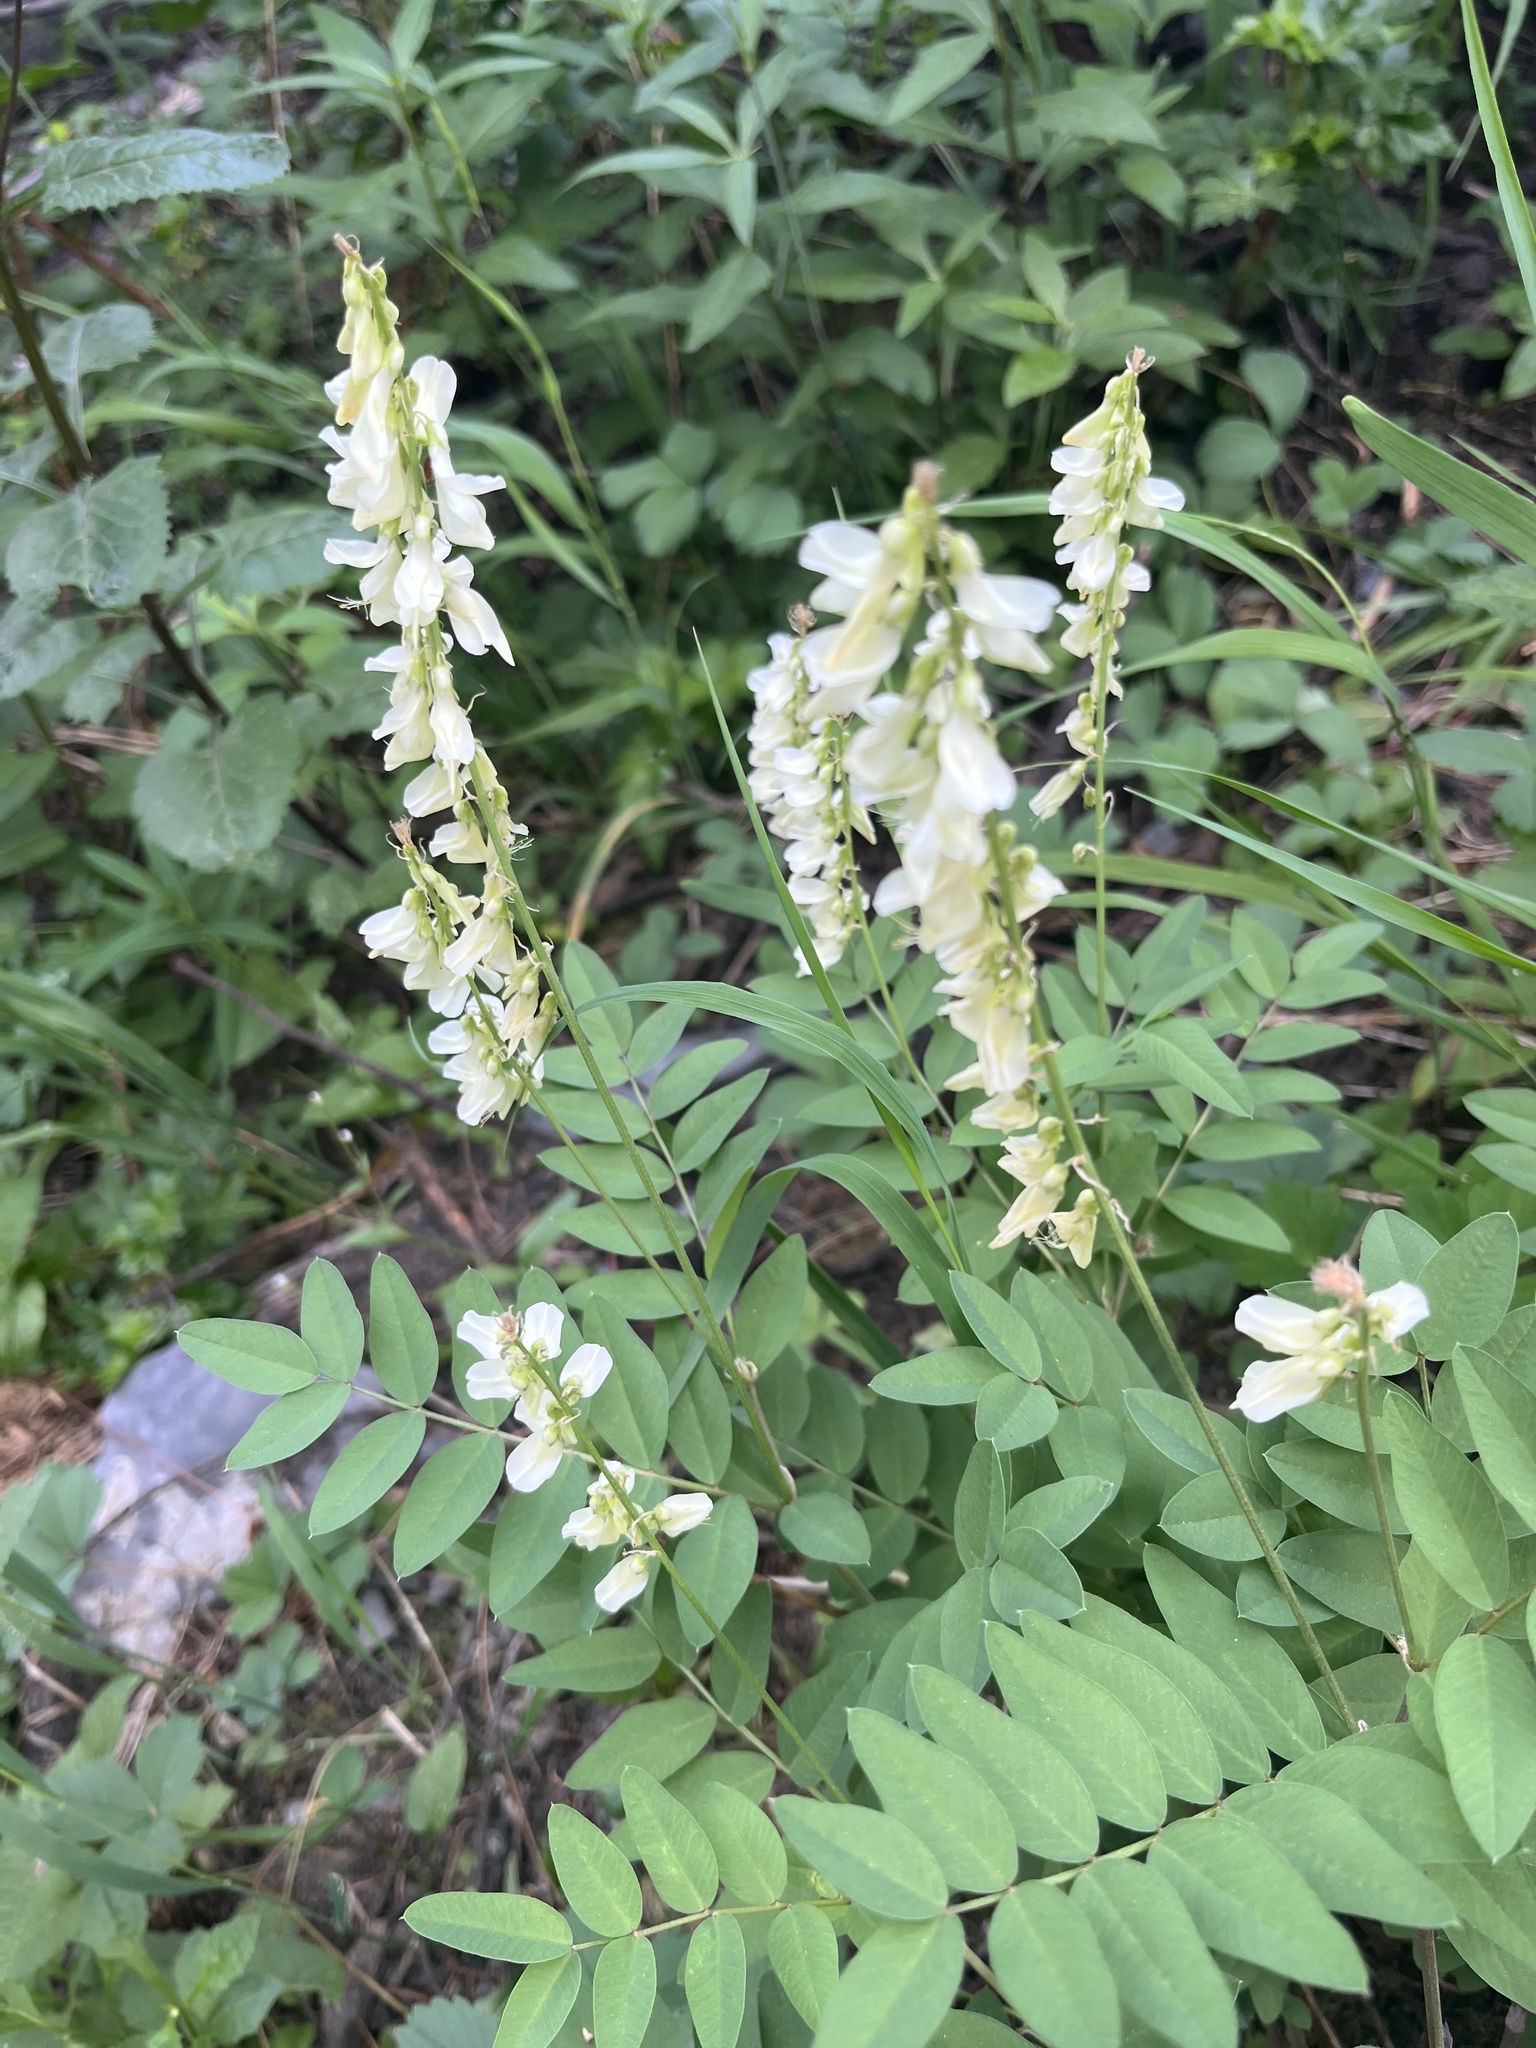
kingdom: Plantae
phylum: Tracheophyta
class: Magnoliopsida
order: Fabales
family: Fabaceae
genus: Hedysarum
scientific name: Hedysarum sulphurescens
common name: Sulphur hedysarum
